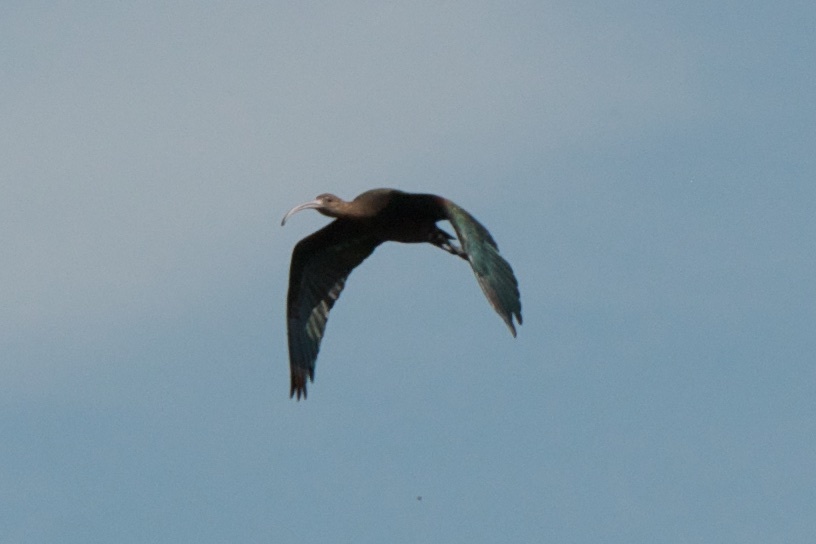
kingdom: Animalia
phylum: Chordata
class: Aves
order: Pelecaniformes
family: Threskiornithidae
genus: Plegadis
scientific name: Plegadis chihi
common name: White-faced ibis
